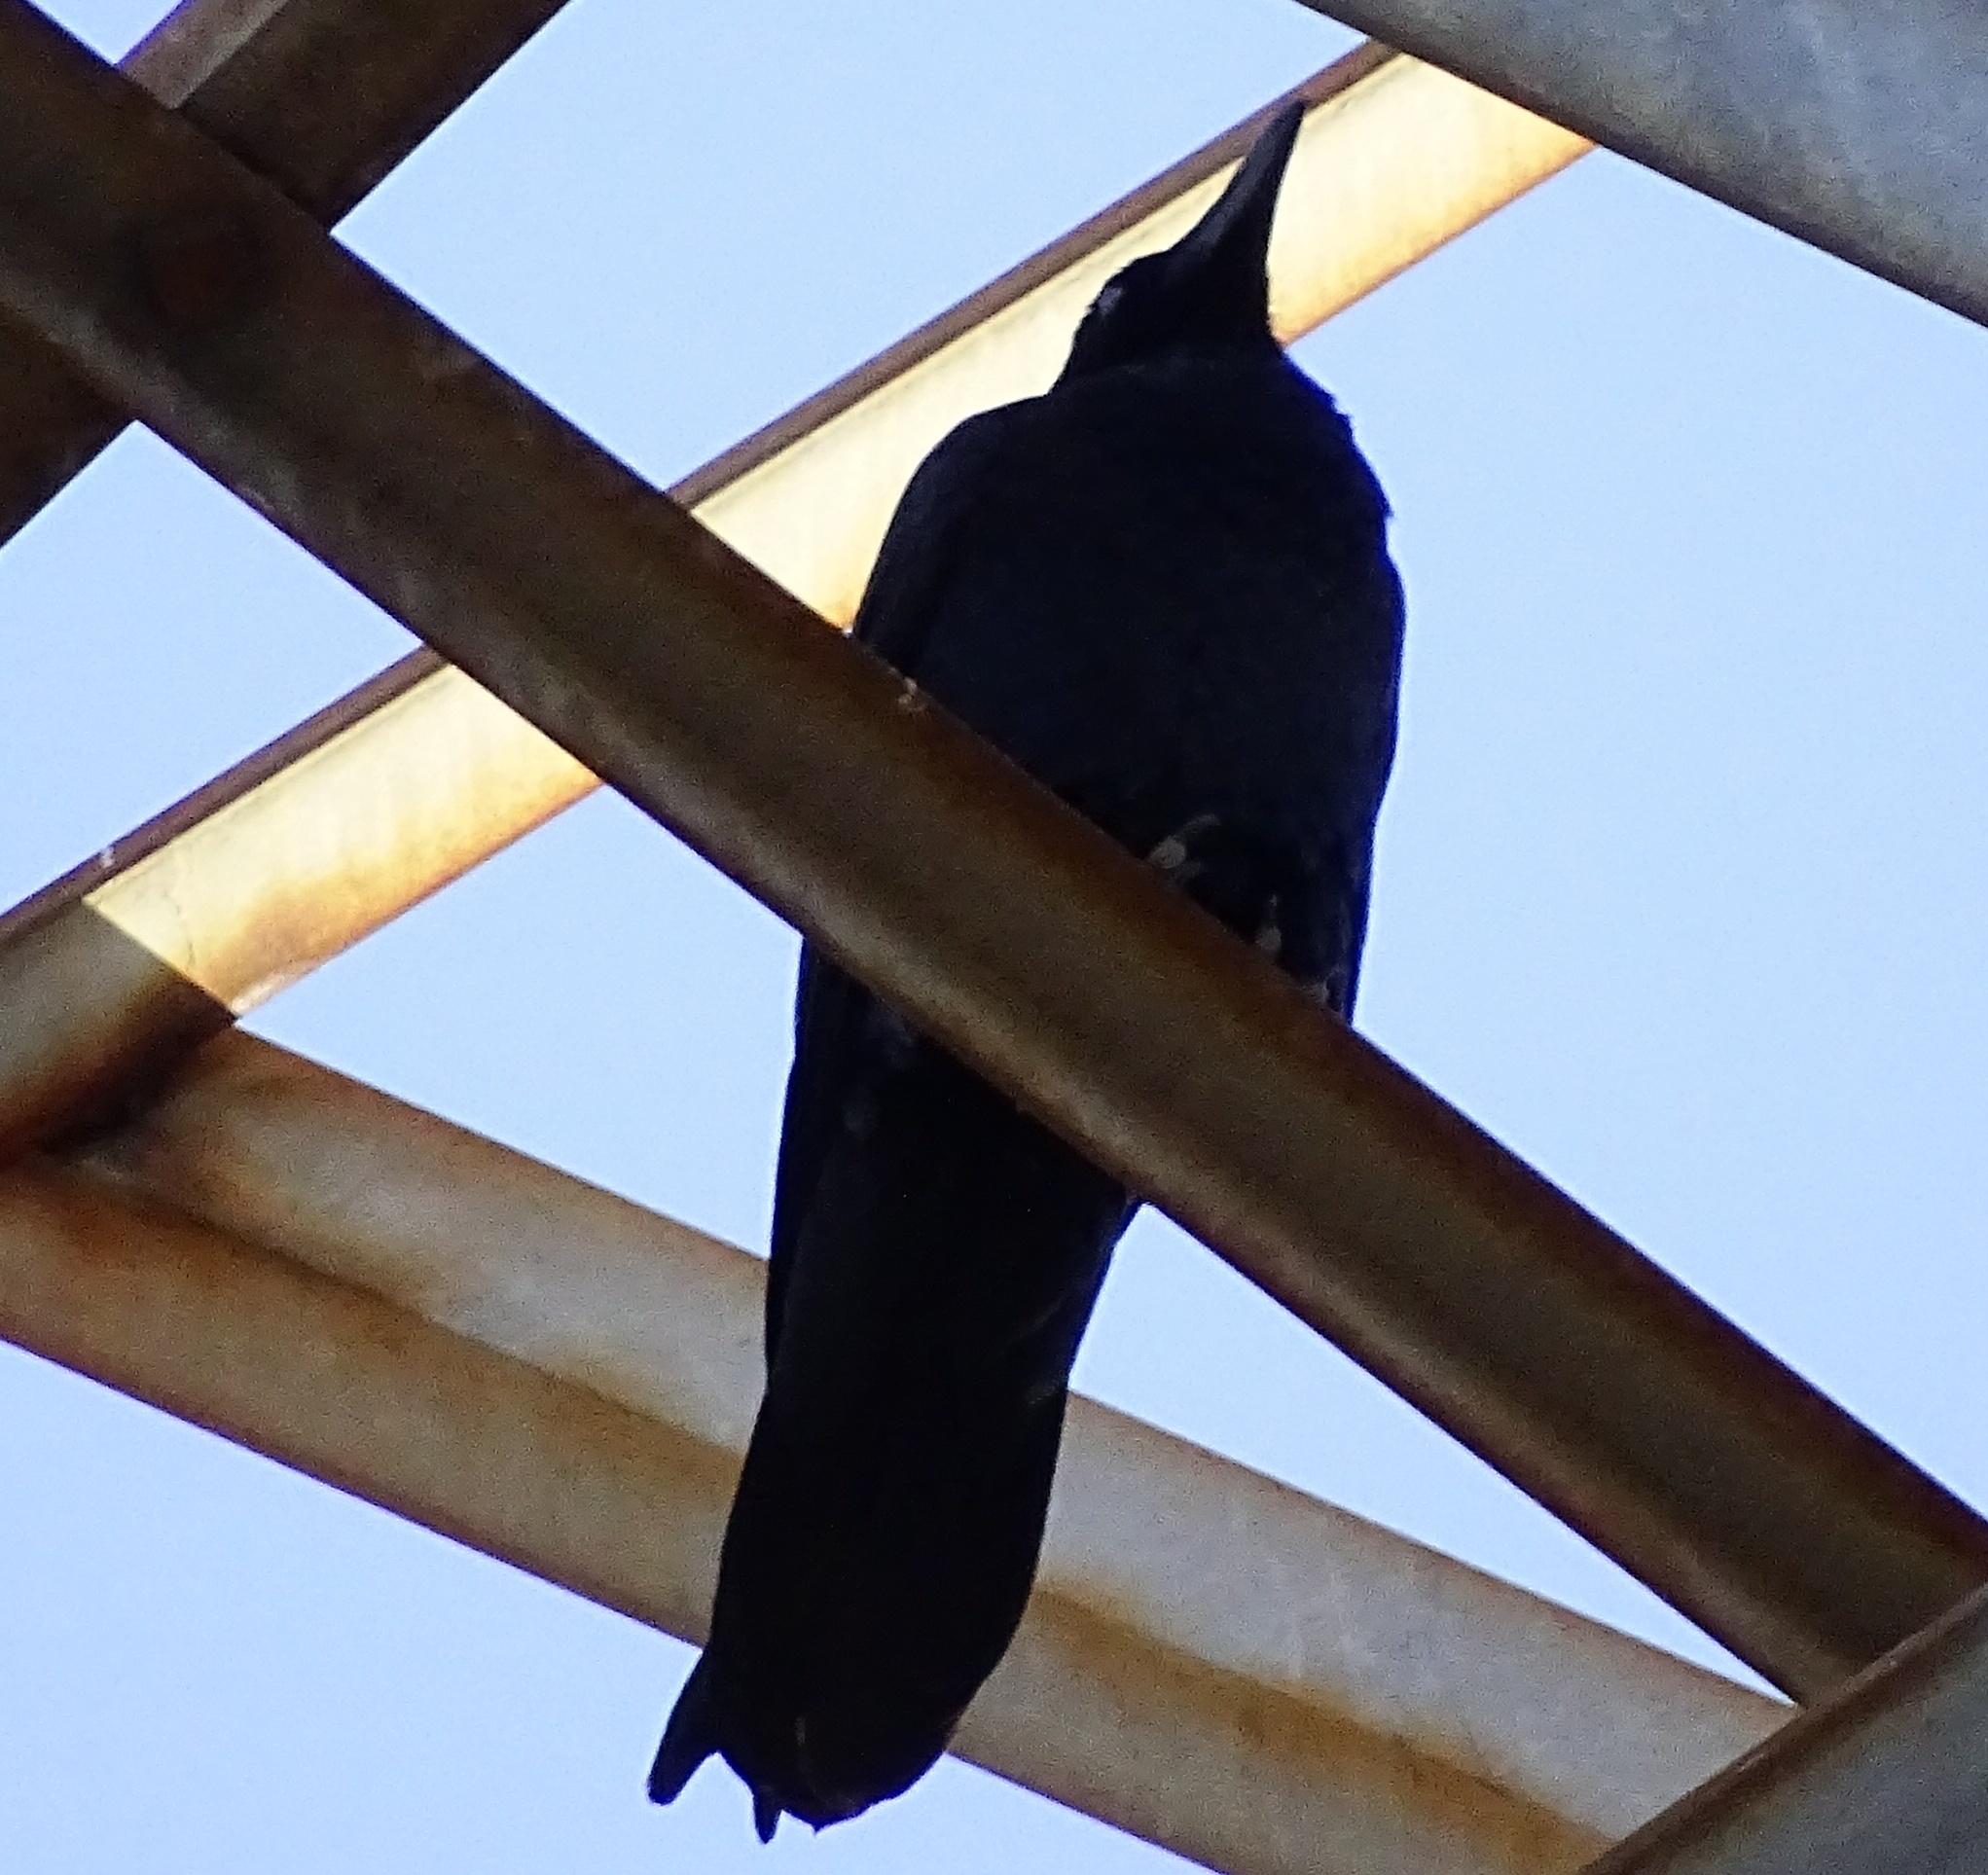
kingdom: Animalia
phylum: Chordata
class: Aves
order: Passeriformes
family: Corvidae
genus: Corvus
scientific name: Corvus corax
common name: Common raven
